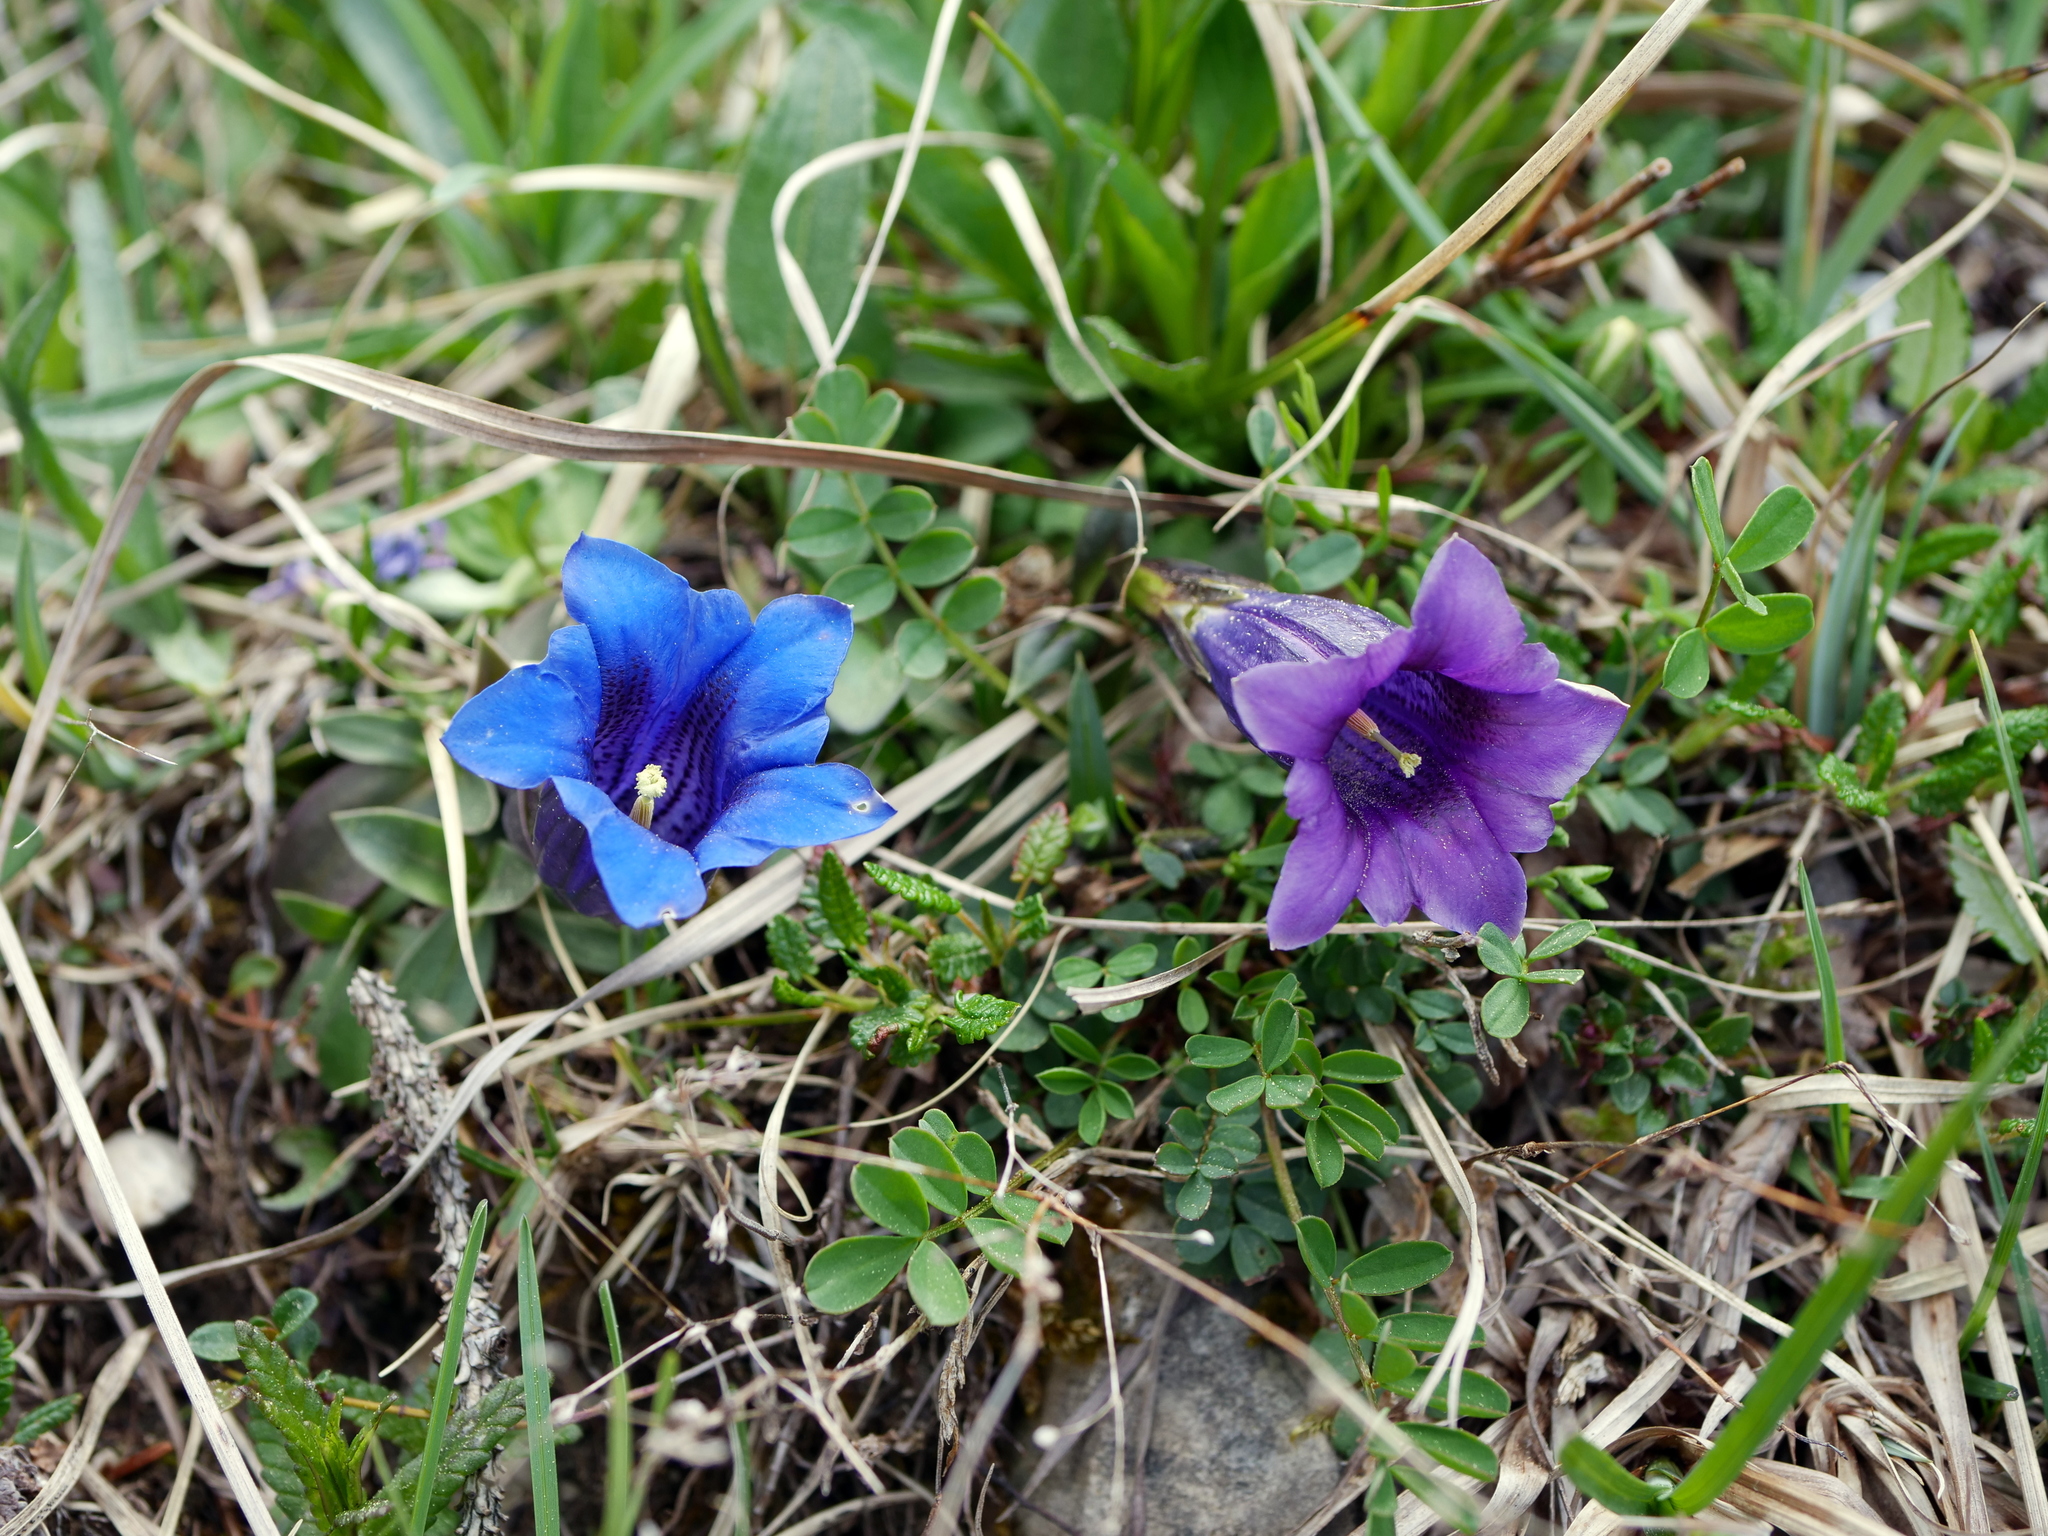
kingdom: Plantae
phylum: Tracheophyta
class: Magnoliopsida
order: Gentianales
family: Gentianaceae
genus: Gentiana
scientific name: Gentiana clusii
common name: Trumpet gentian
